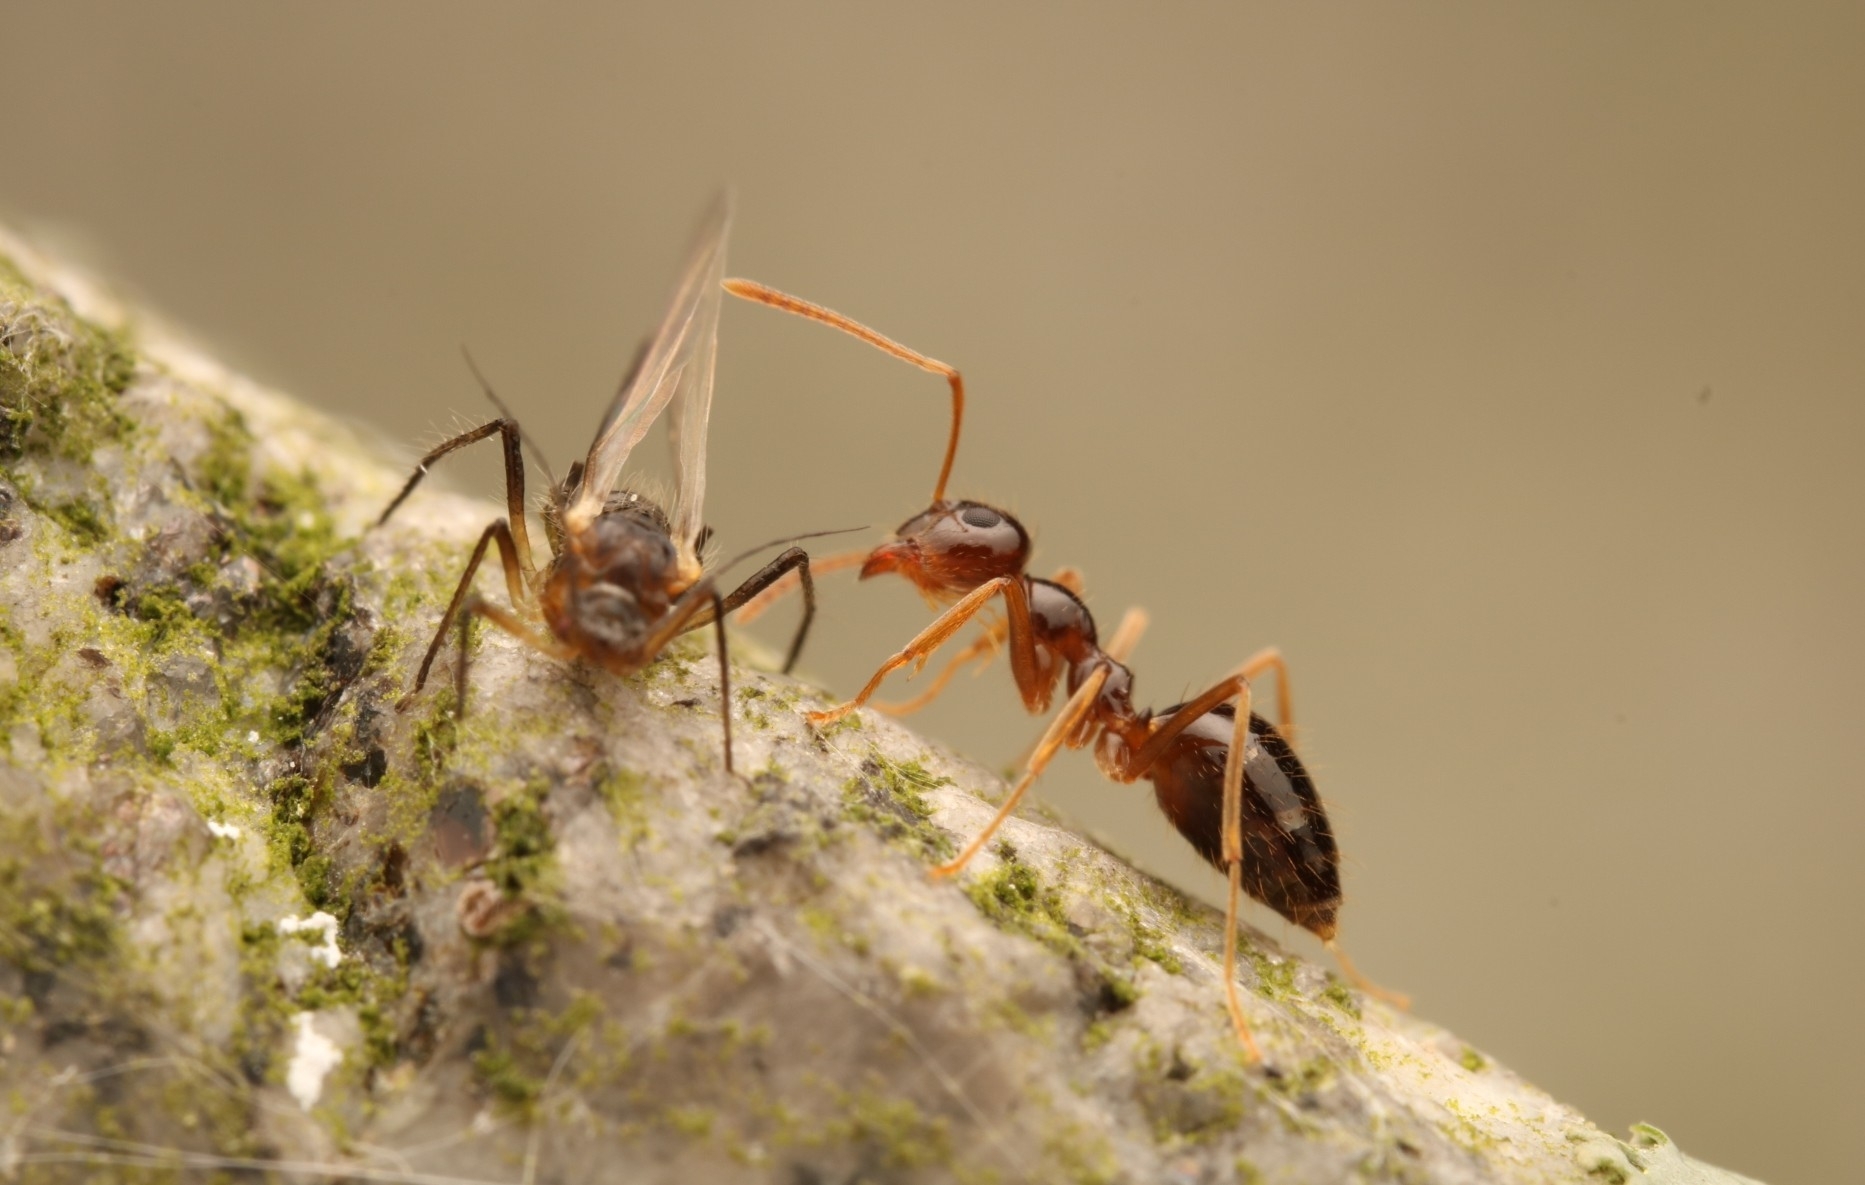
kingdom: Animalia
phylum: Arthropoda
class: Insecta
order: Hymenoptera
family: Formicidae
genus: Prenolepis
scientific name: Prenolepis imparis
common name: Small honey ant
